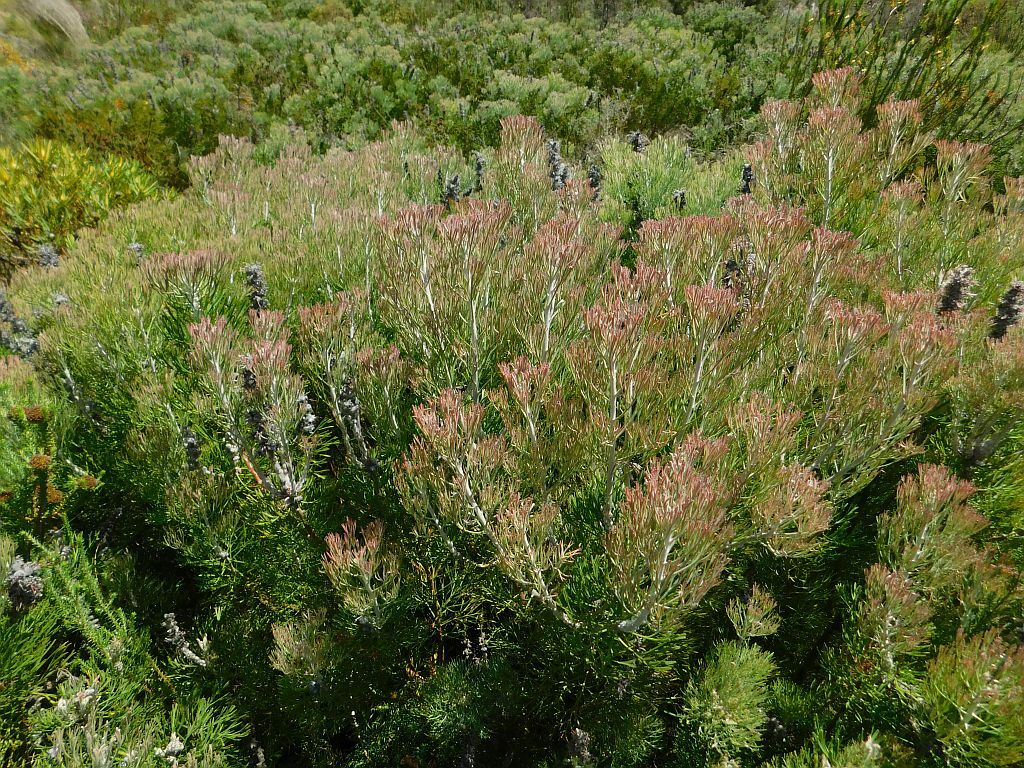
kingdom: Plantae
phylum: Tracheophyta
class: Magnoliopsida
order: Proteales
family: Proteaceae
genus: Paranomus
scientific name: Paranomus dispersus
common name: Long-head sceptre
